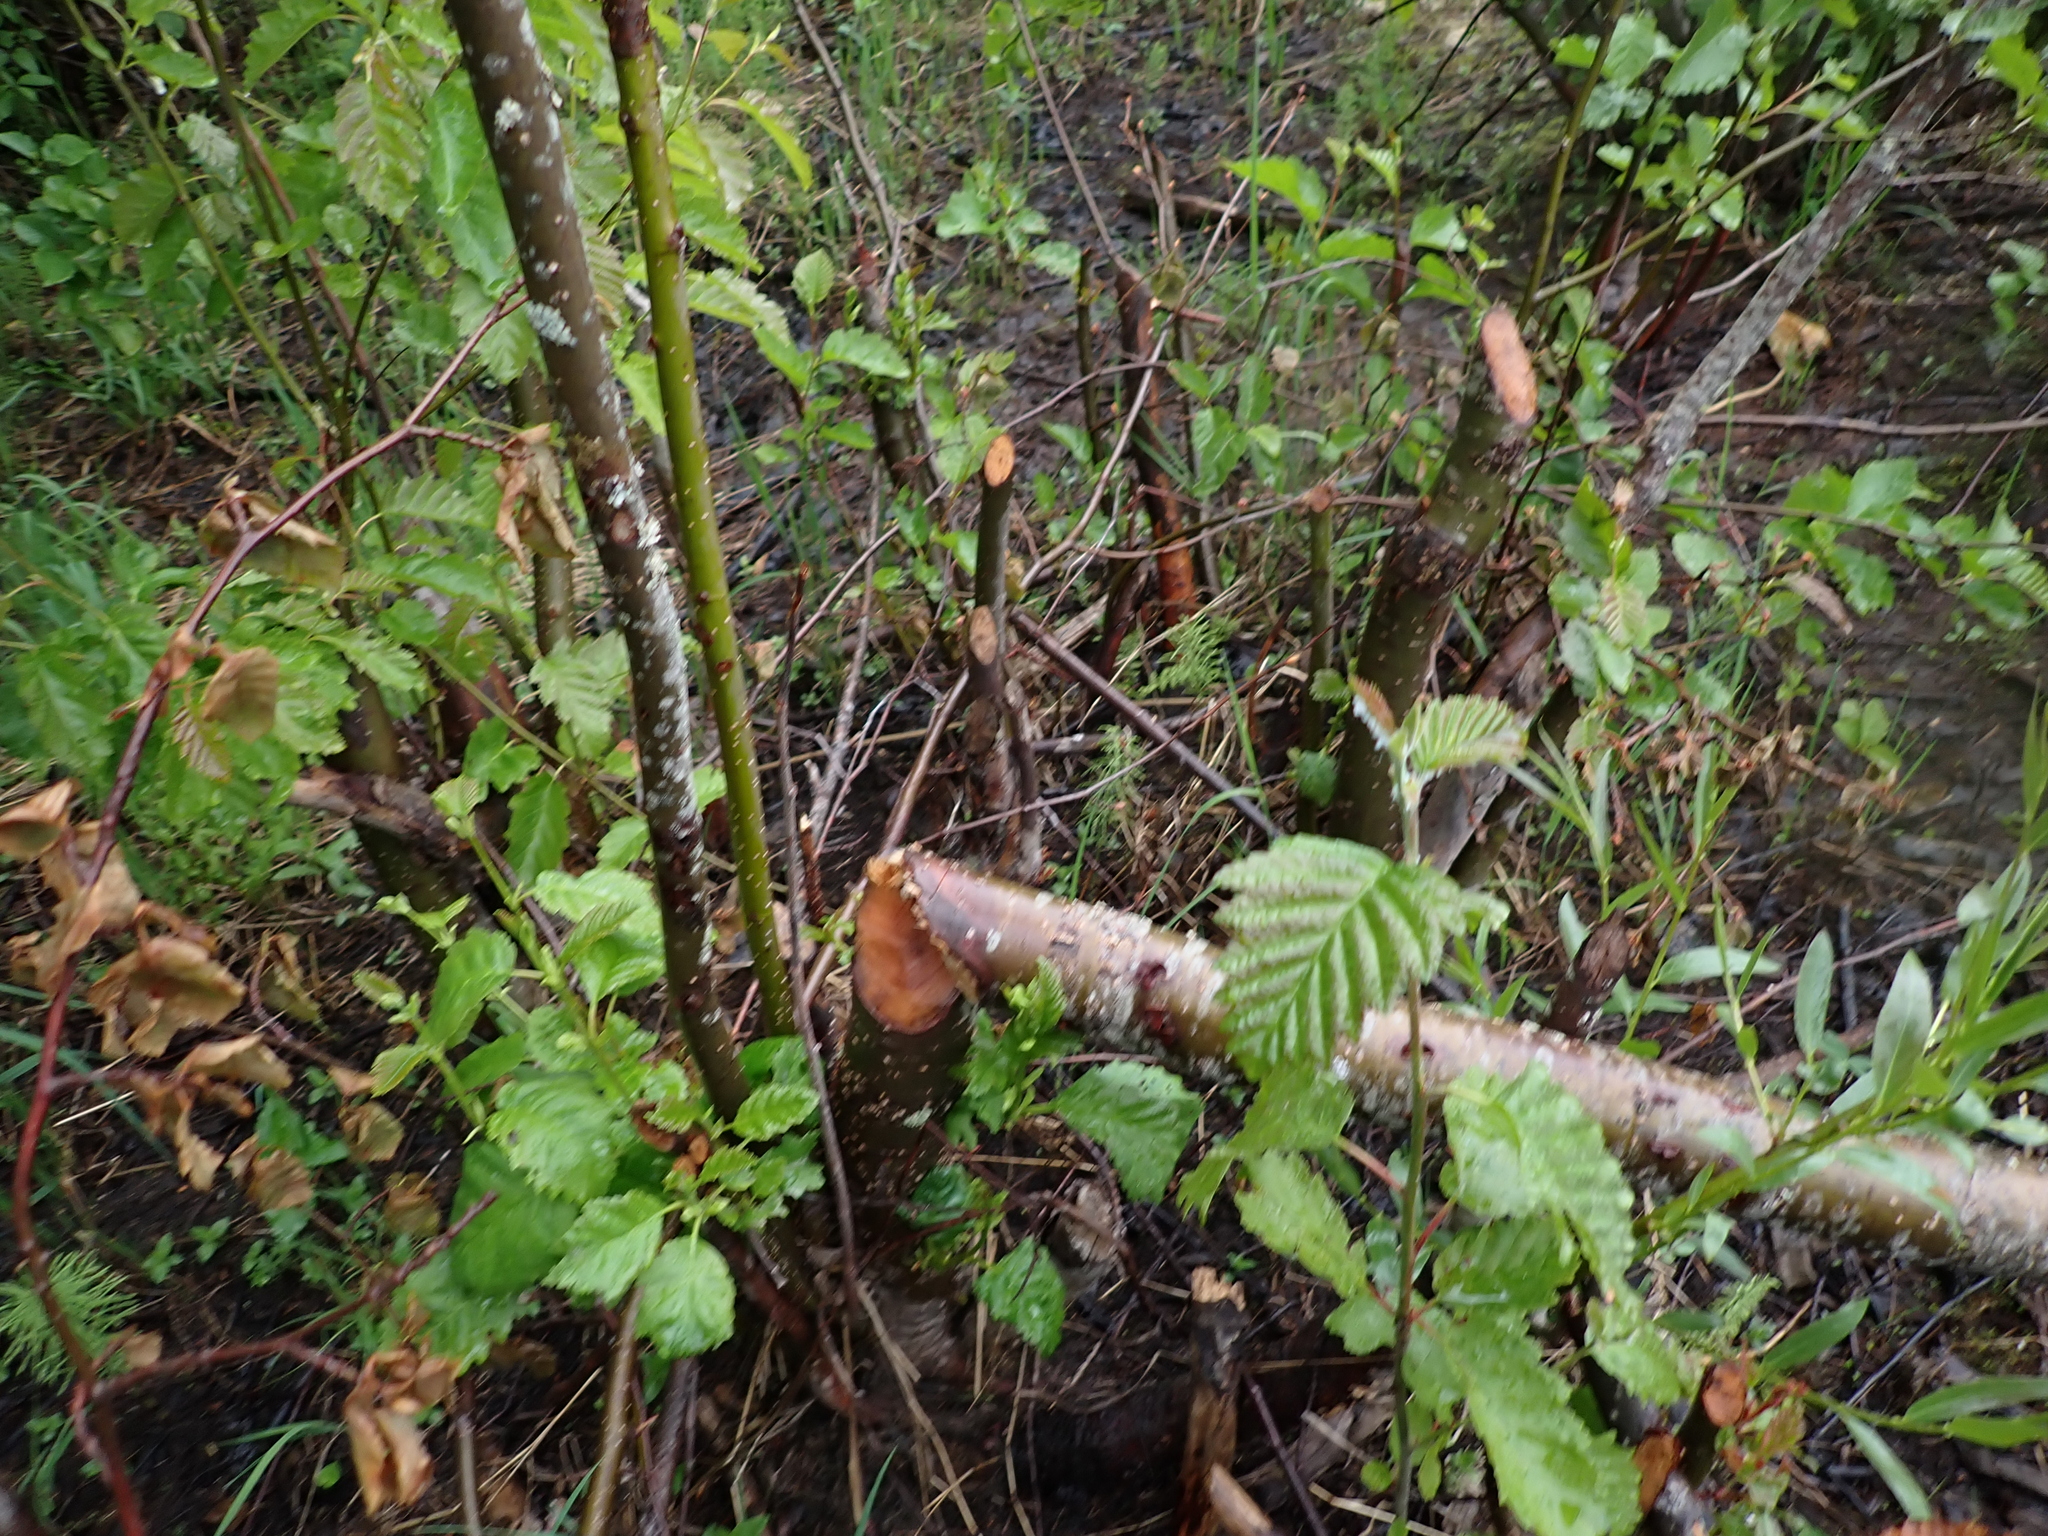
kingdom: Animalia
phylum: Chordata
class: Mammalia
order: Rodentia
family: Castoridae
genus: Castor
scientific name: Castor canadensis
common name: American beaver
